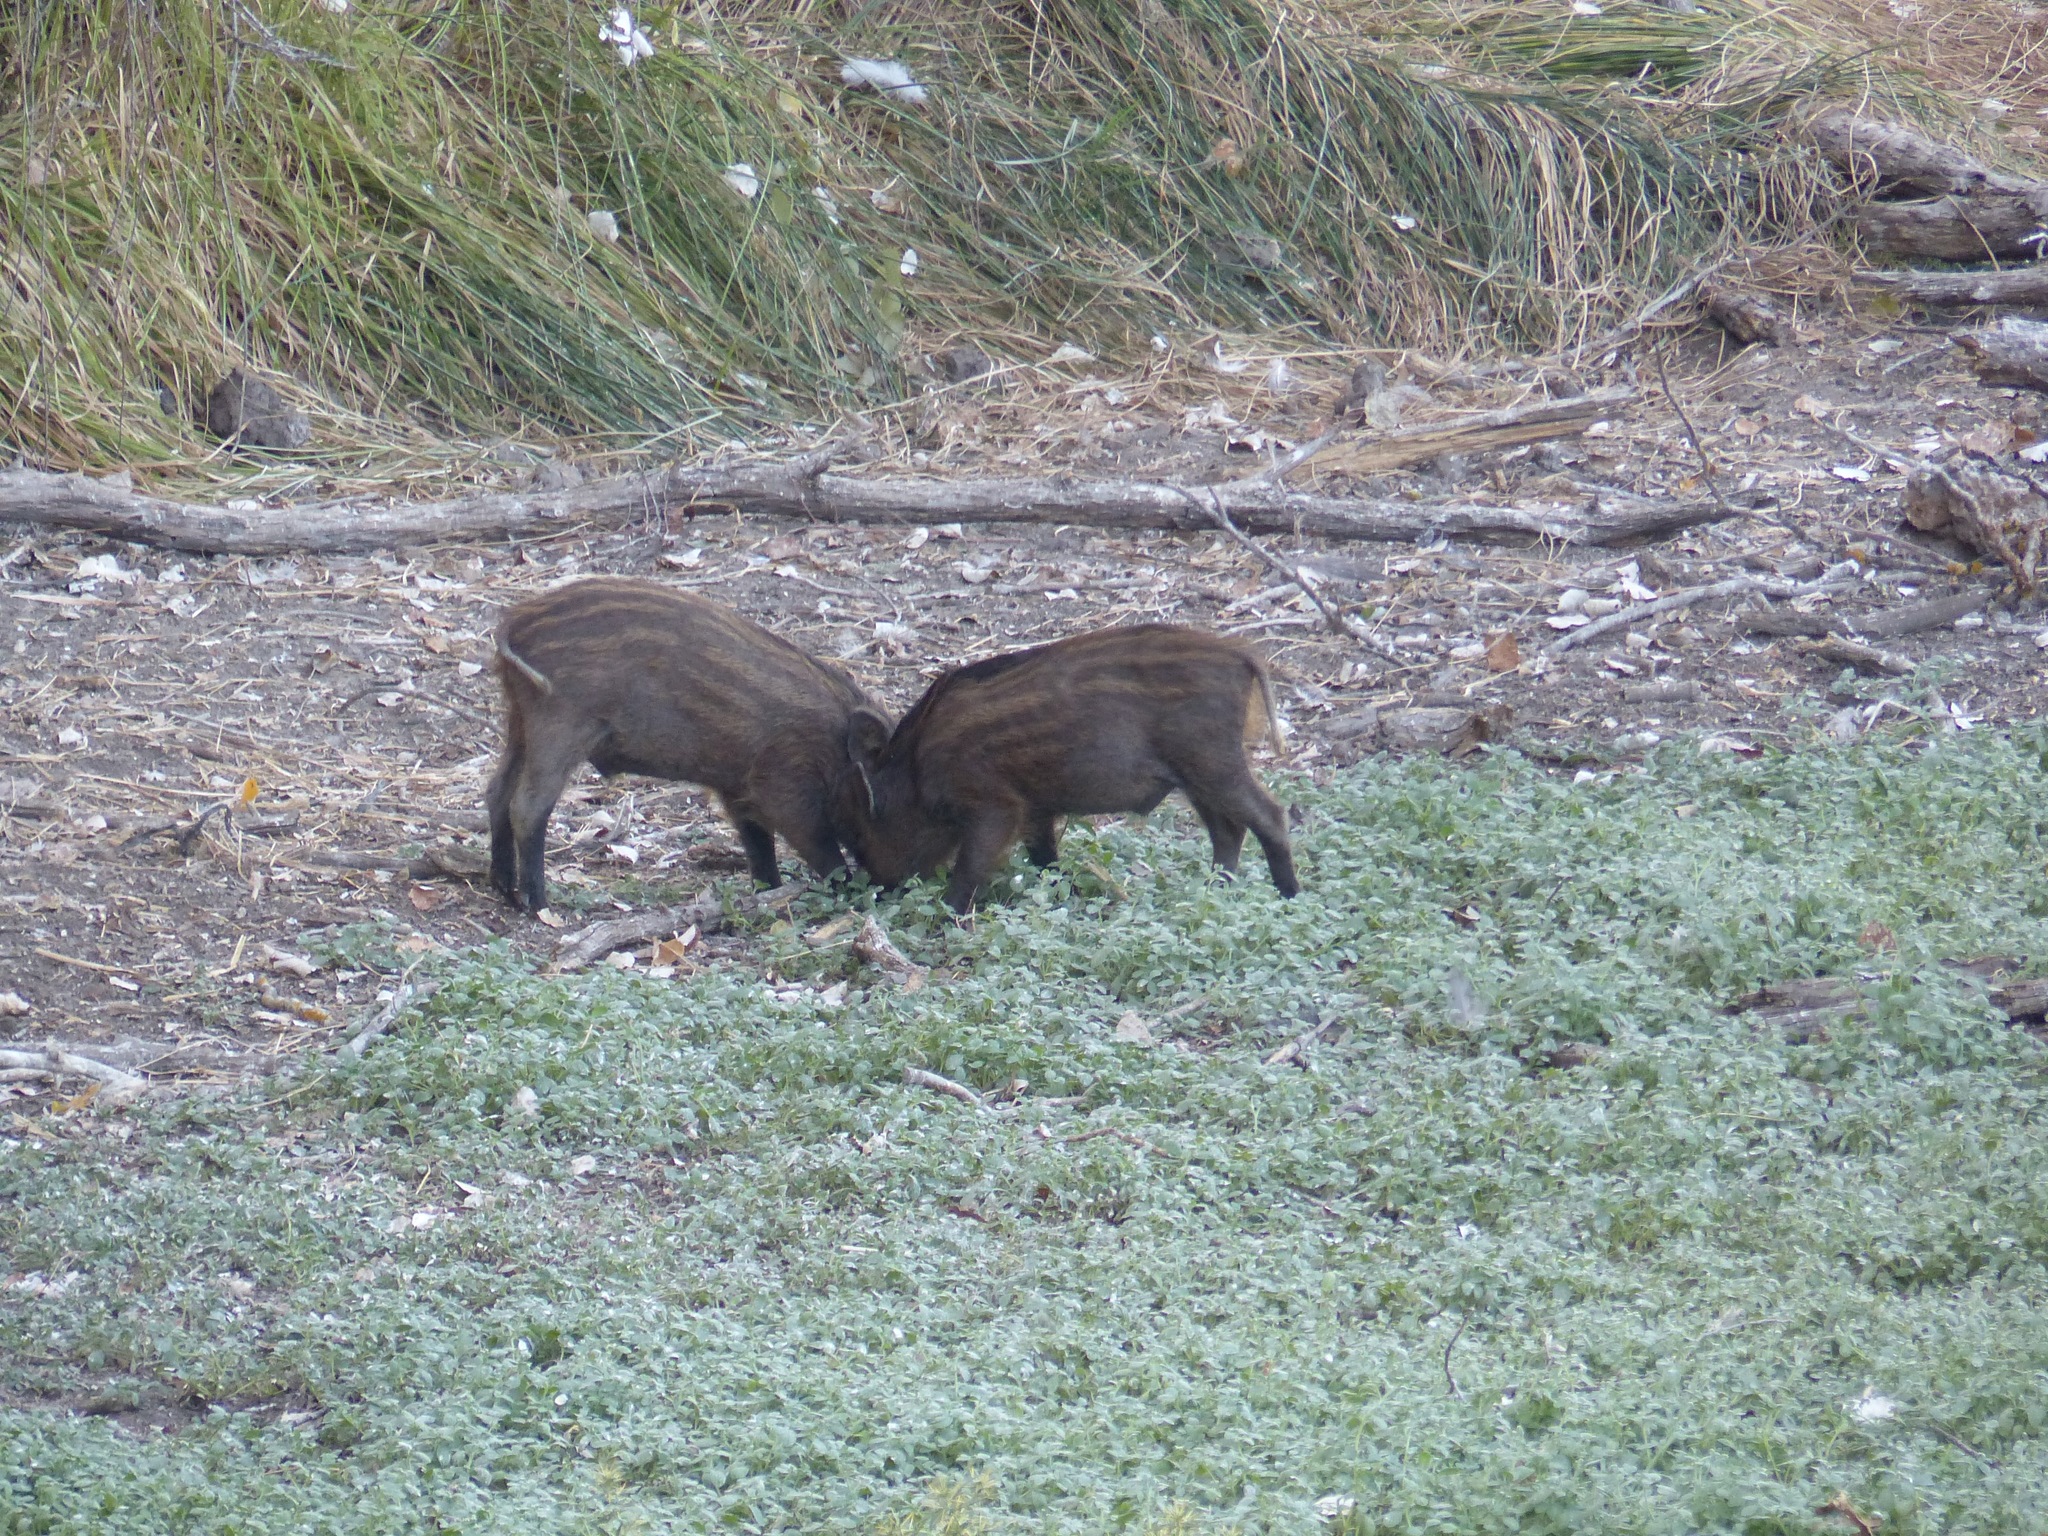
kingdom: Animalia
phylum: Chordata
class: Mammalia
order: Artiodactyla
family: Suidae
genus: Sus
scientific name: Sus scrofa
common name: Wild boar
